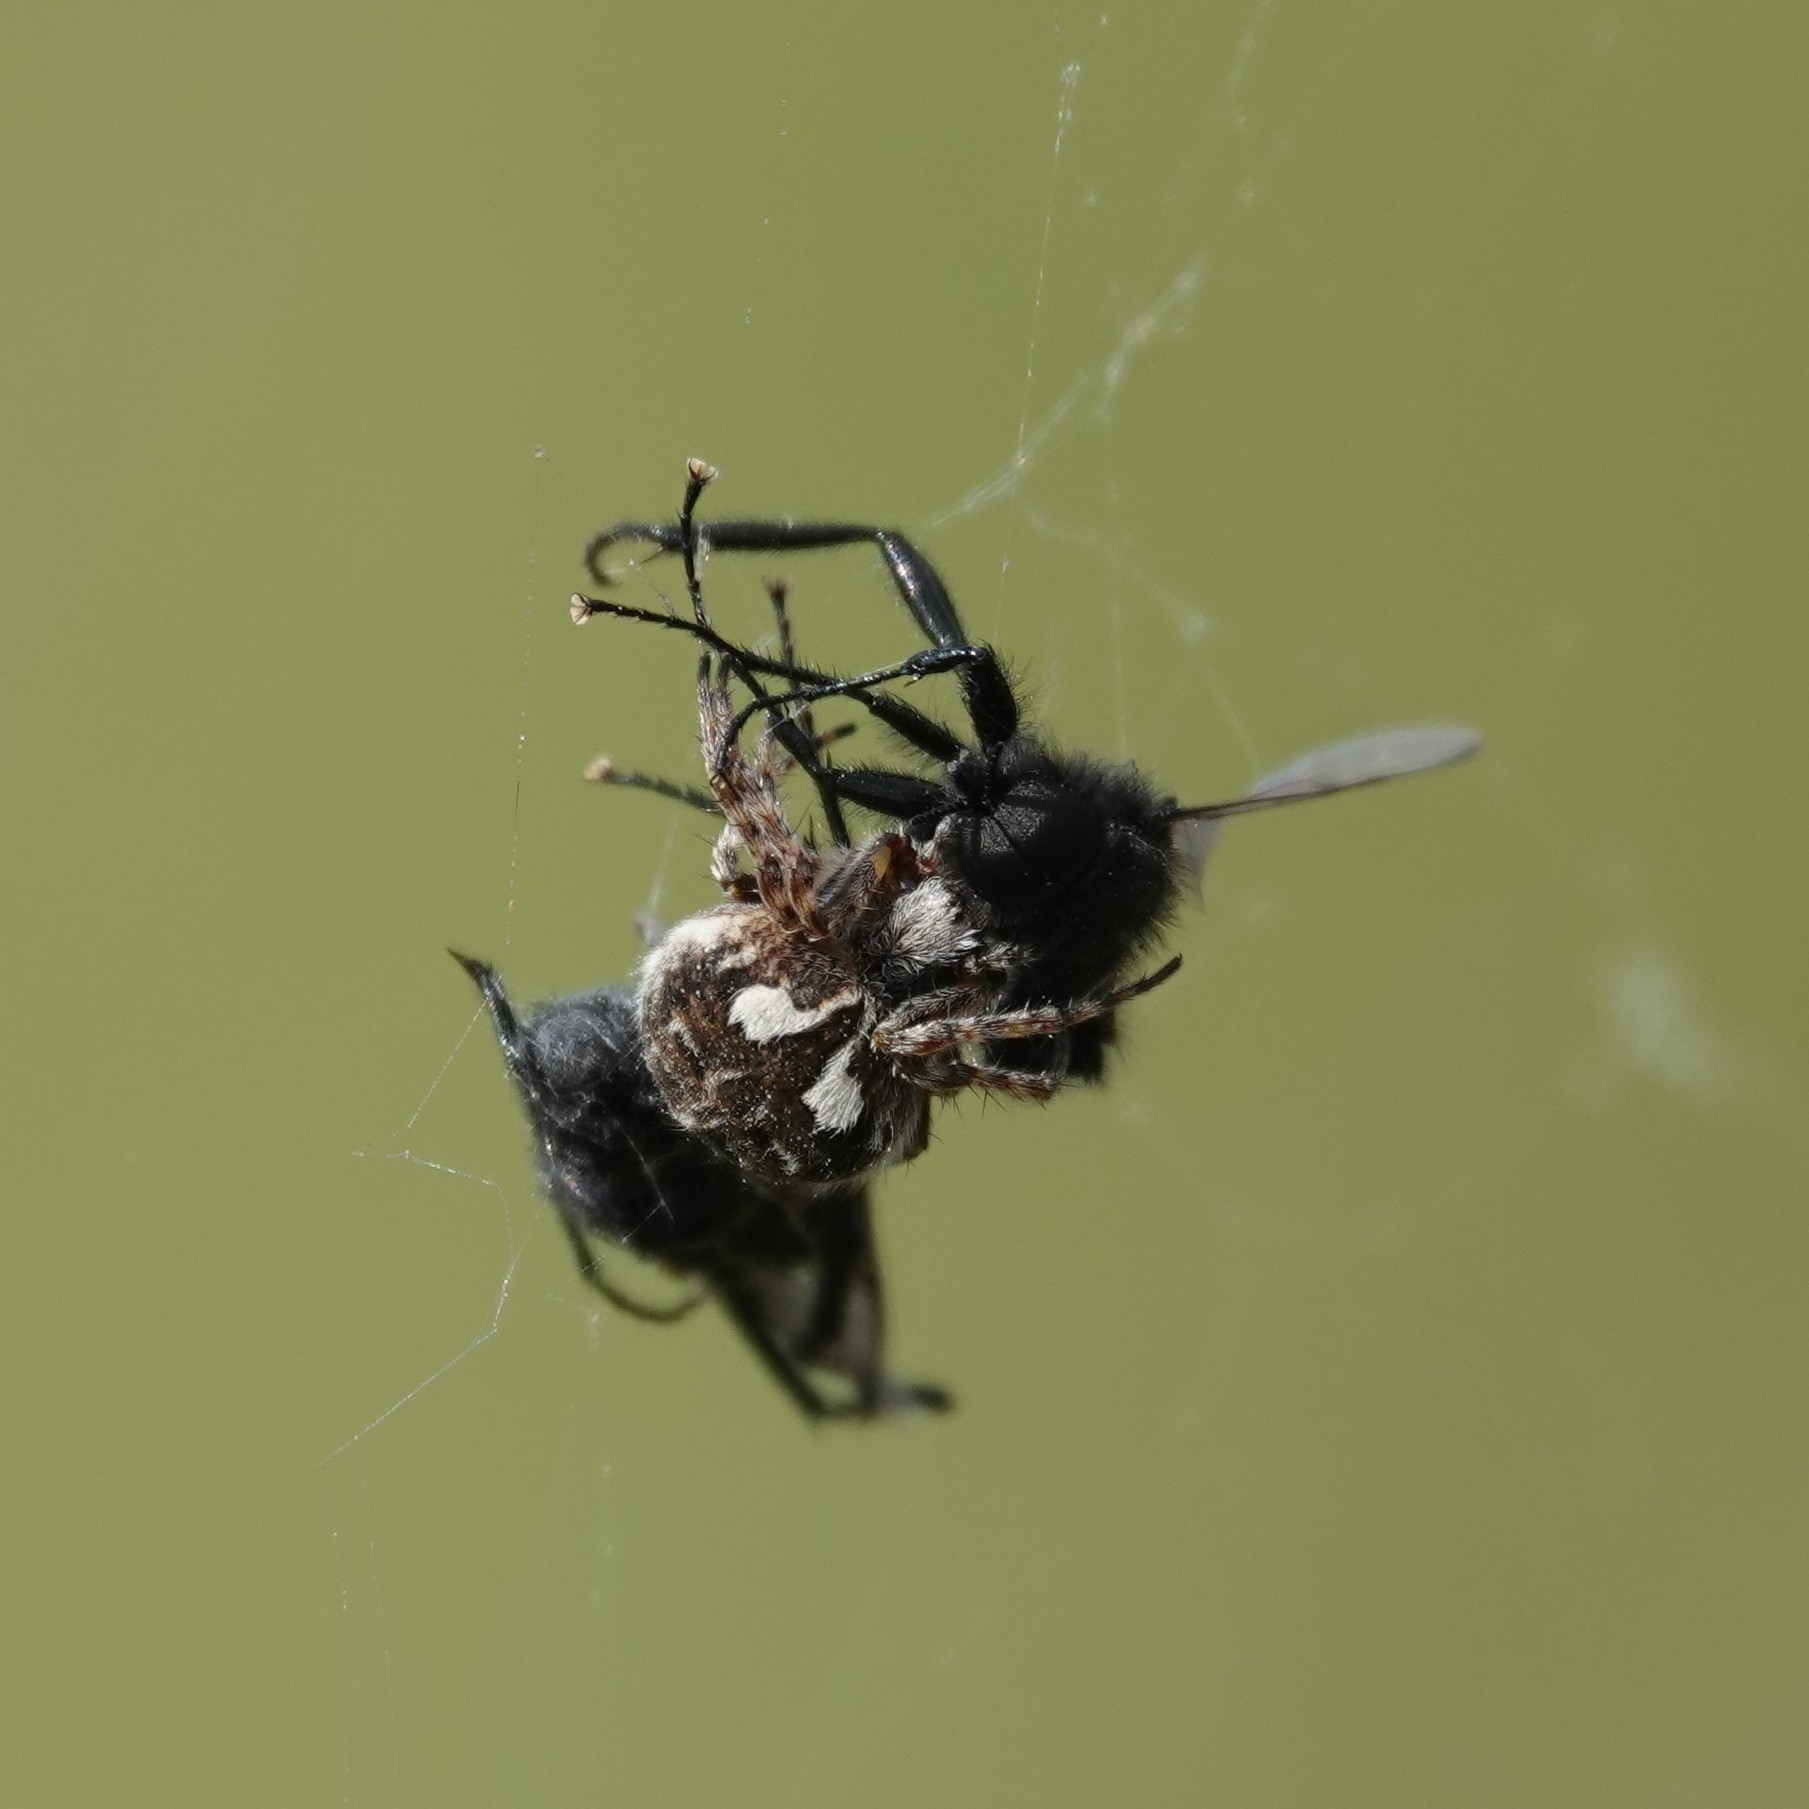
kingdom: Animalia
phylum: Arthropoda
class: Arachnida
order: Araneae
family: Araneidae
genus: Agalenatea
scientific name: Agalenatea redii
